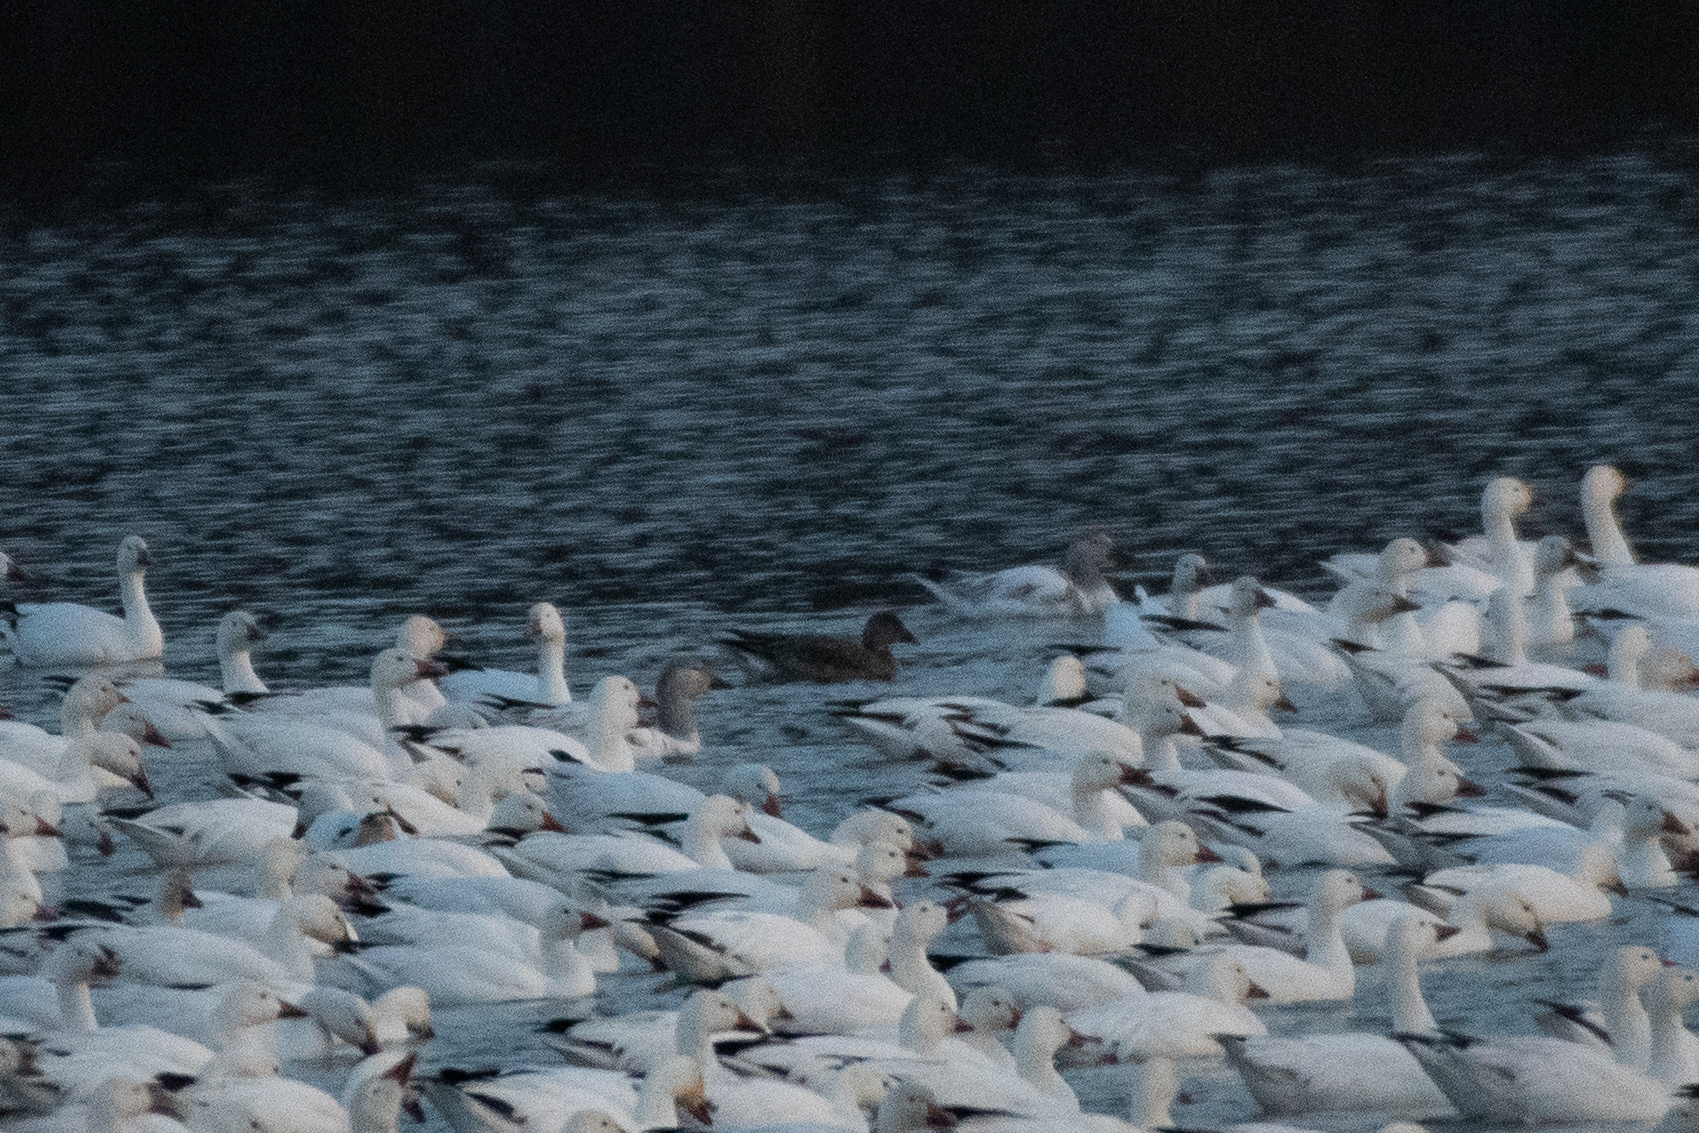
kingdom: Animalia
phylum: Chordata
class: Aves
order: Anseriformes
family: Anatidae
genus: Anser
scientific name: Anser caerulescens
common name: Snow goose
